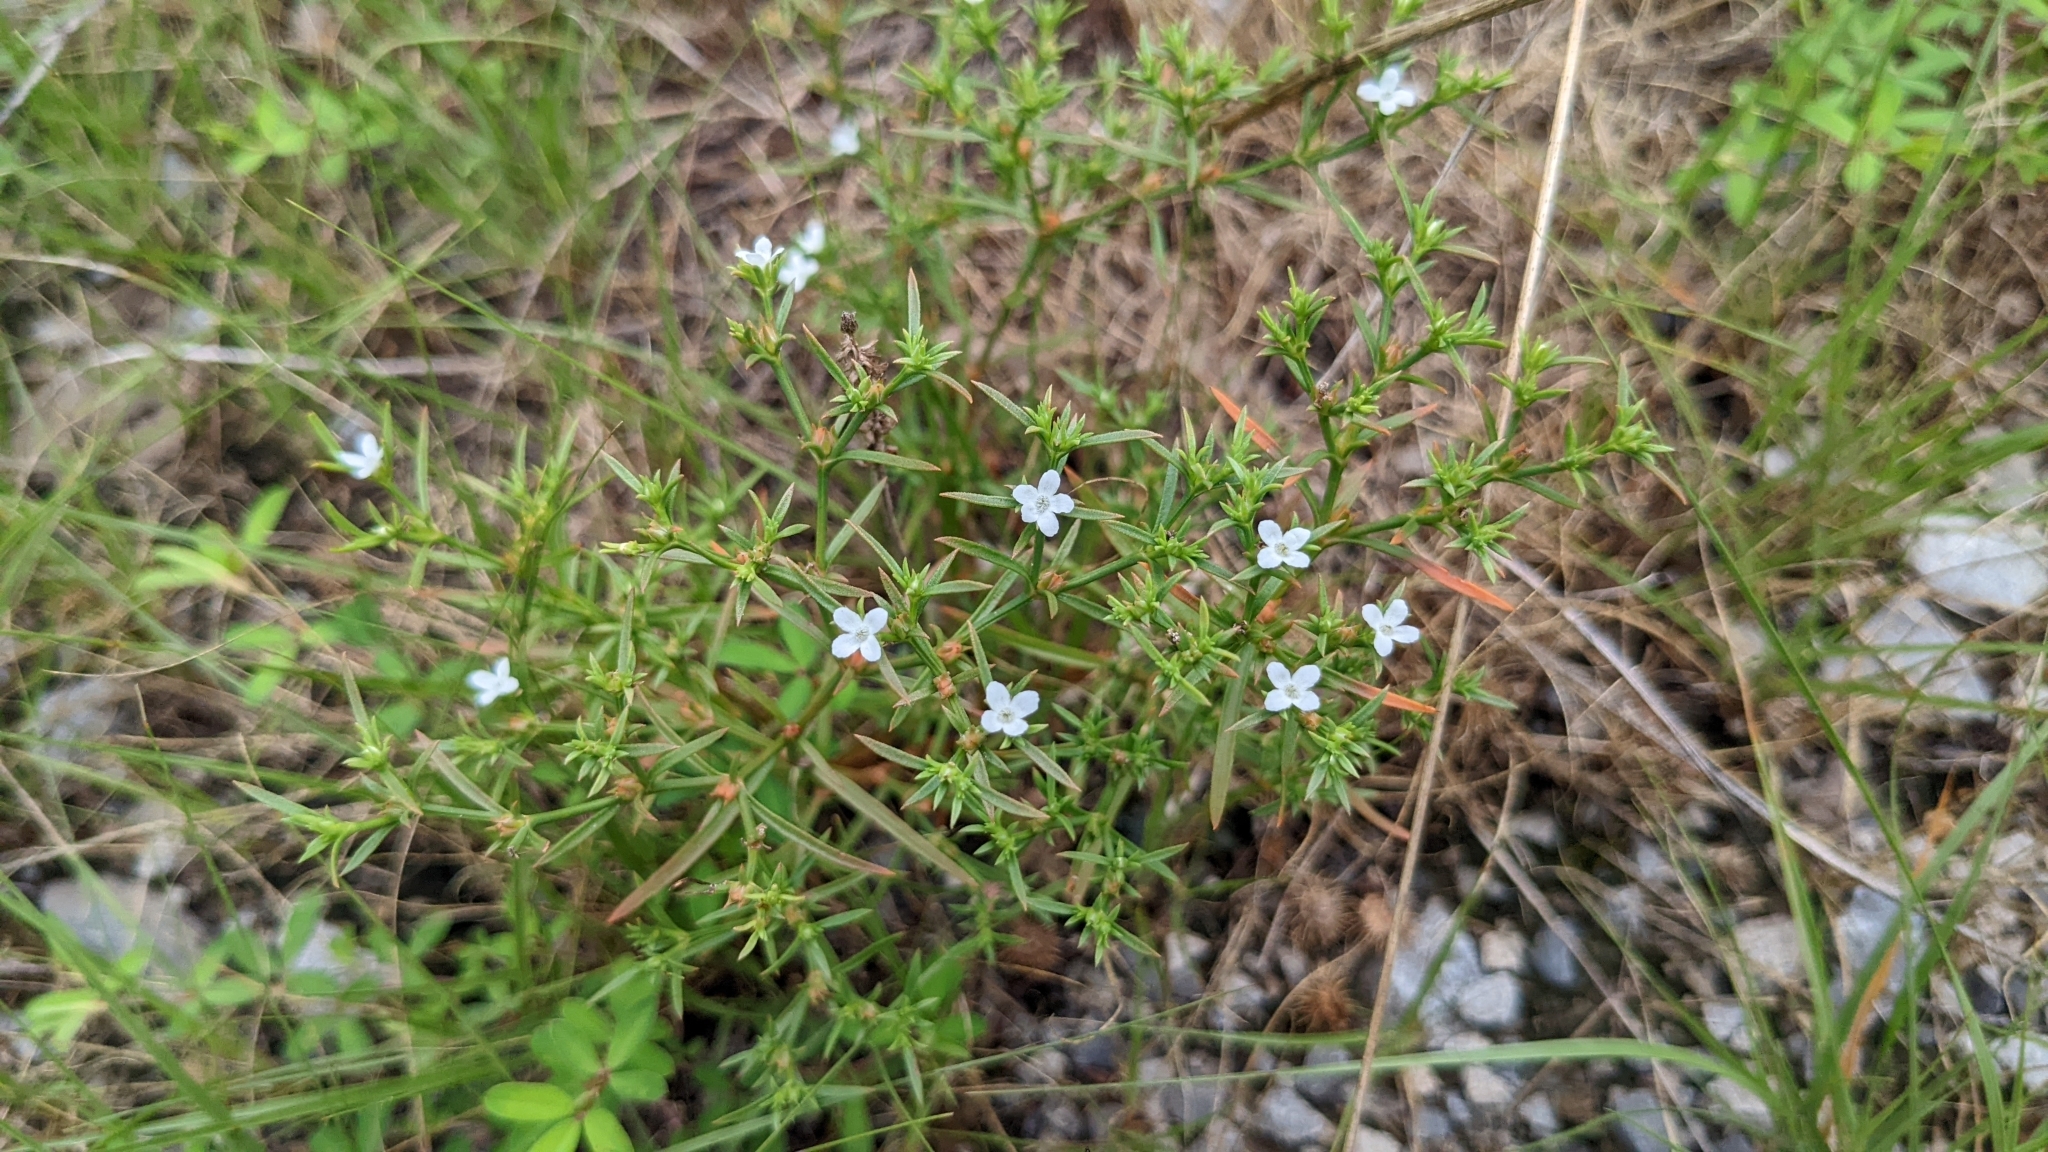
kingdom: Plantae
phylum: Tracheophyta
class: Magnoliopsida
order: Lamiales
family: Tetrachondraceae
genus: Polypremum
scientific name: Polypremum procumbens
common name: Juniper-leaf
